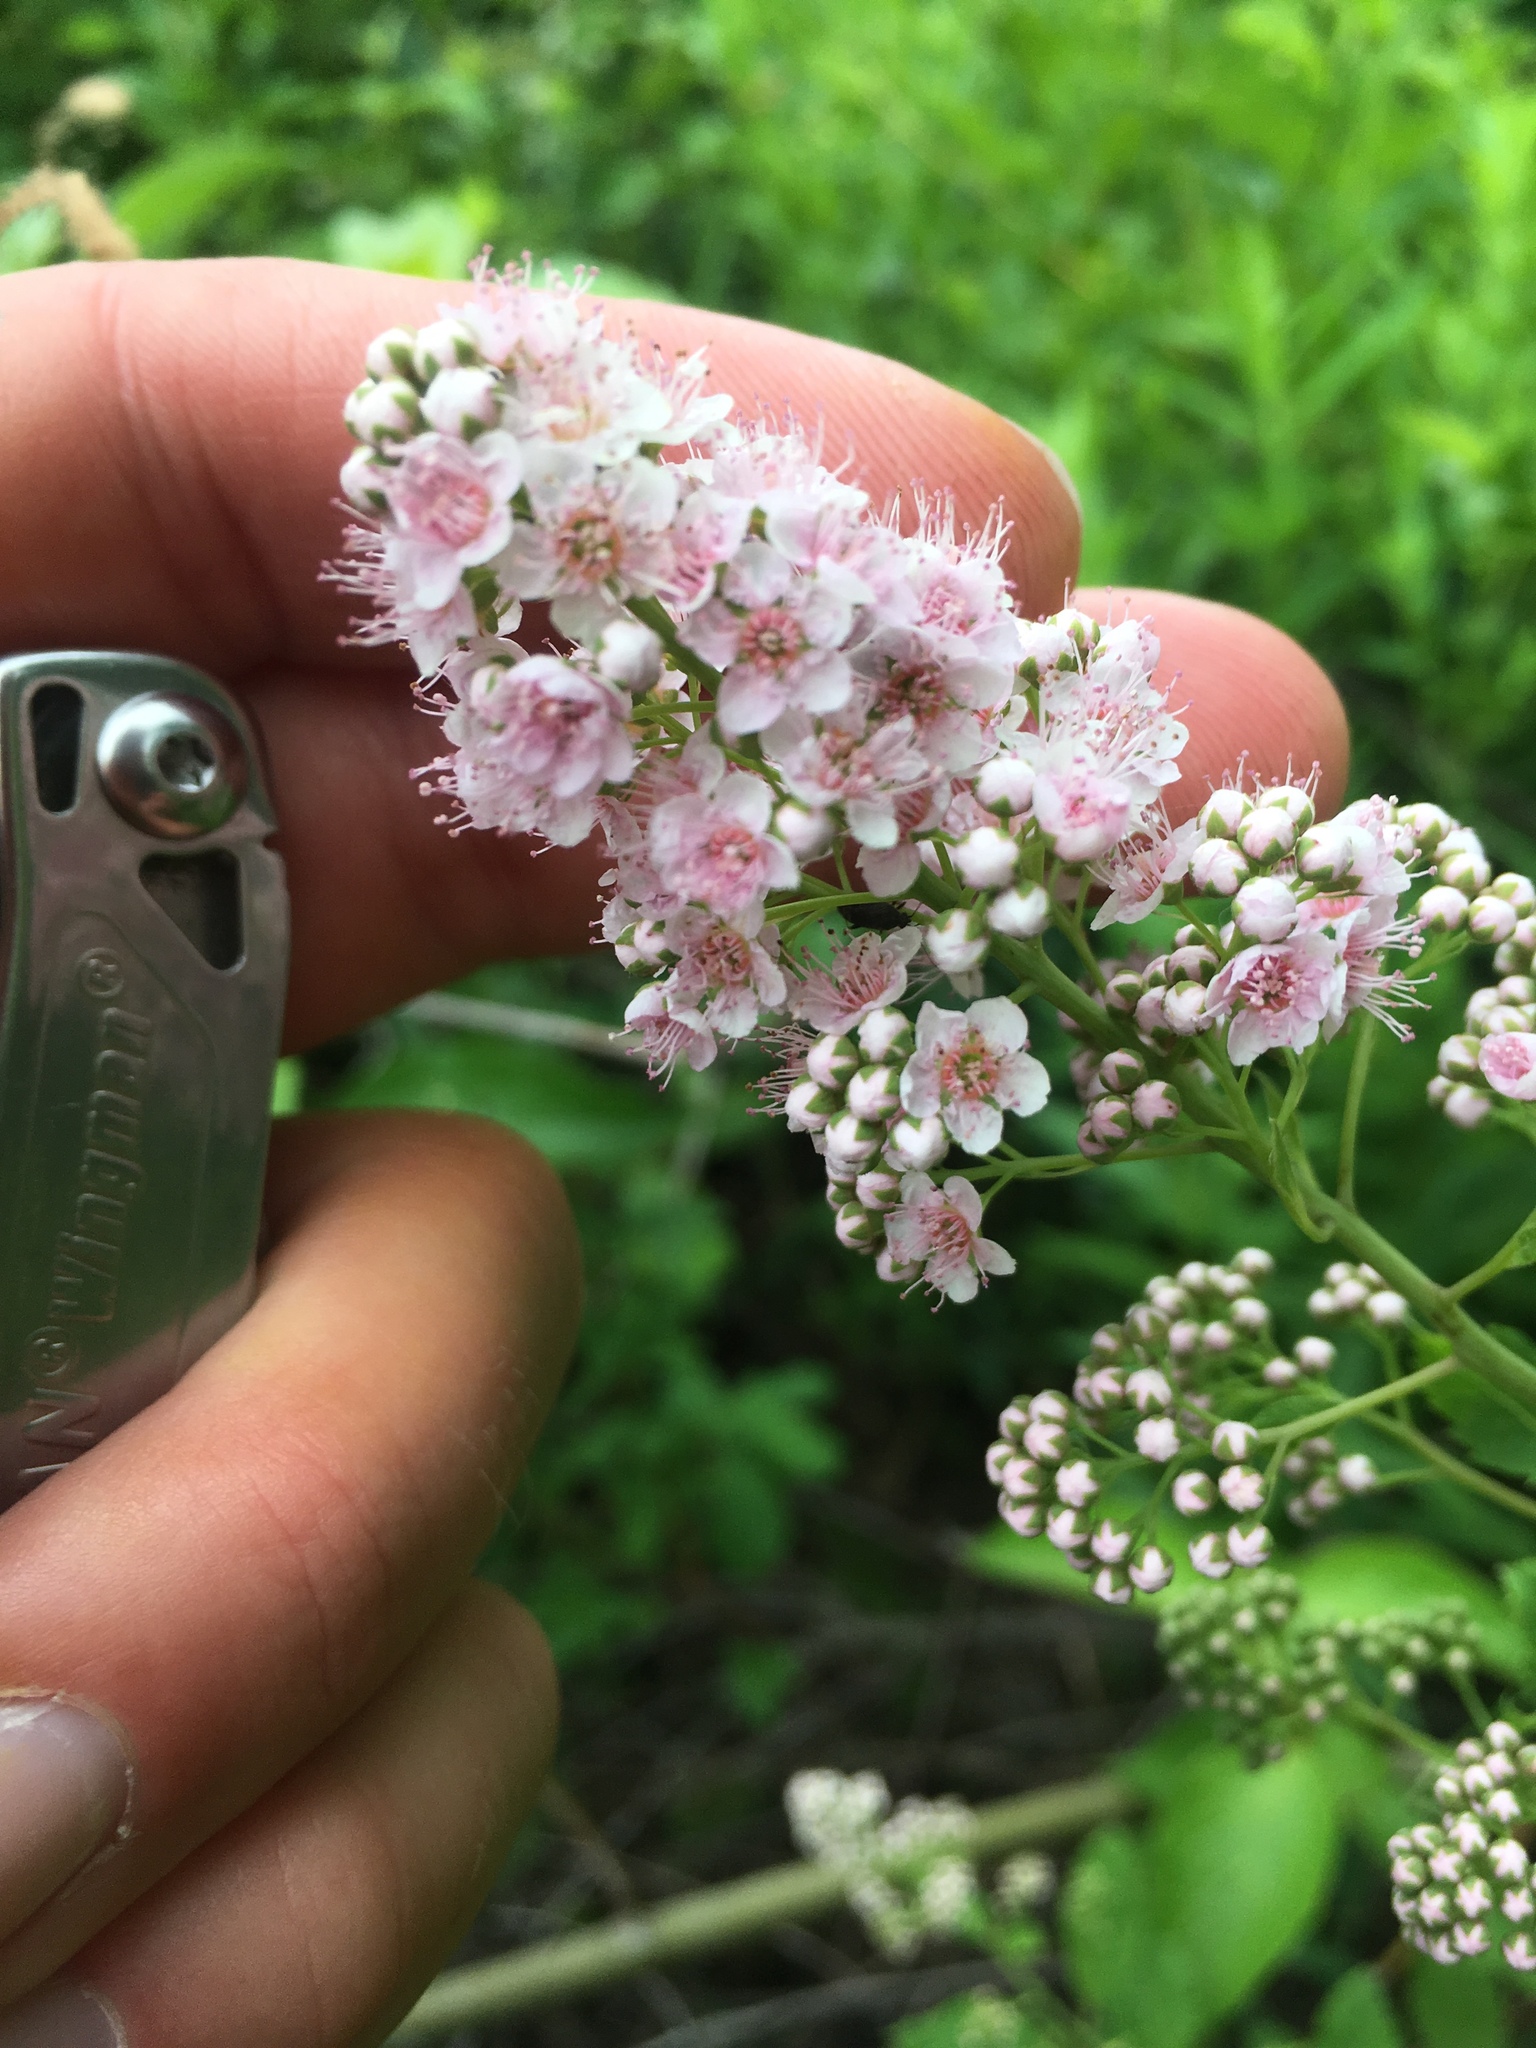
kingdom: Plantae
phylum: Tracheophyta
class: Magnoliopsida
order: Rosales
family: Rosaceae
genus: Spiraea
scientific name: Spiraea alba
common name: Pale bridewort
